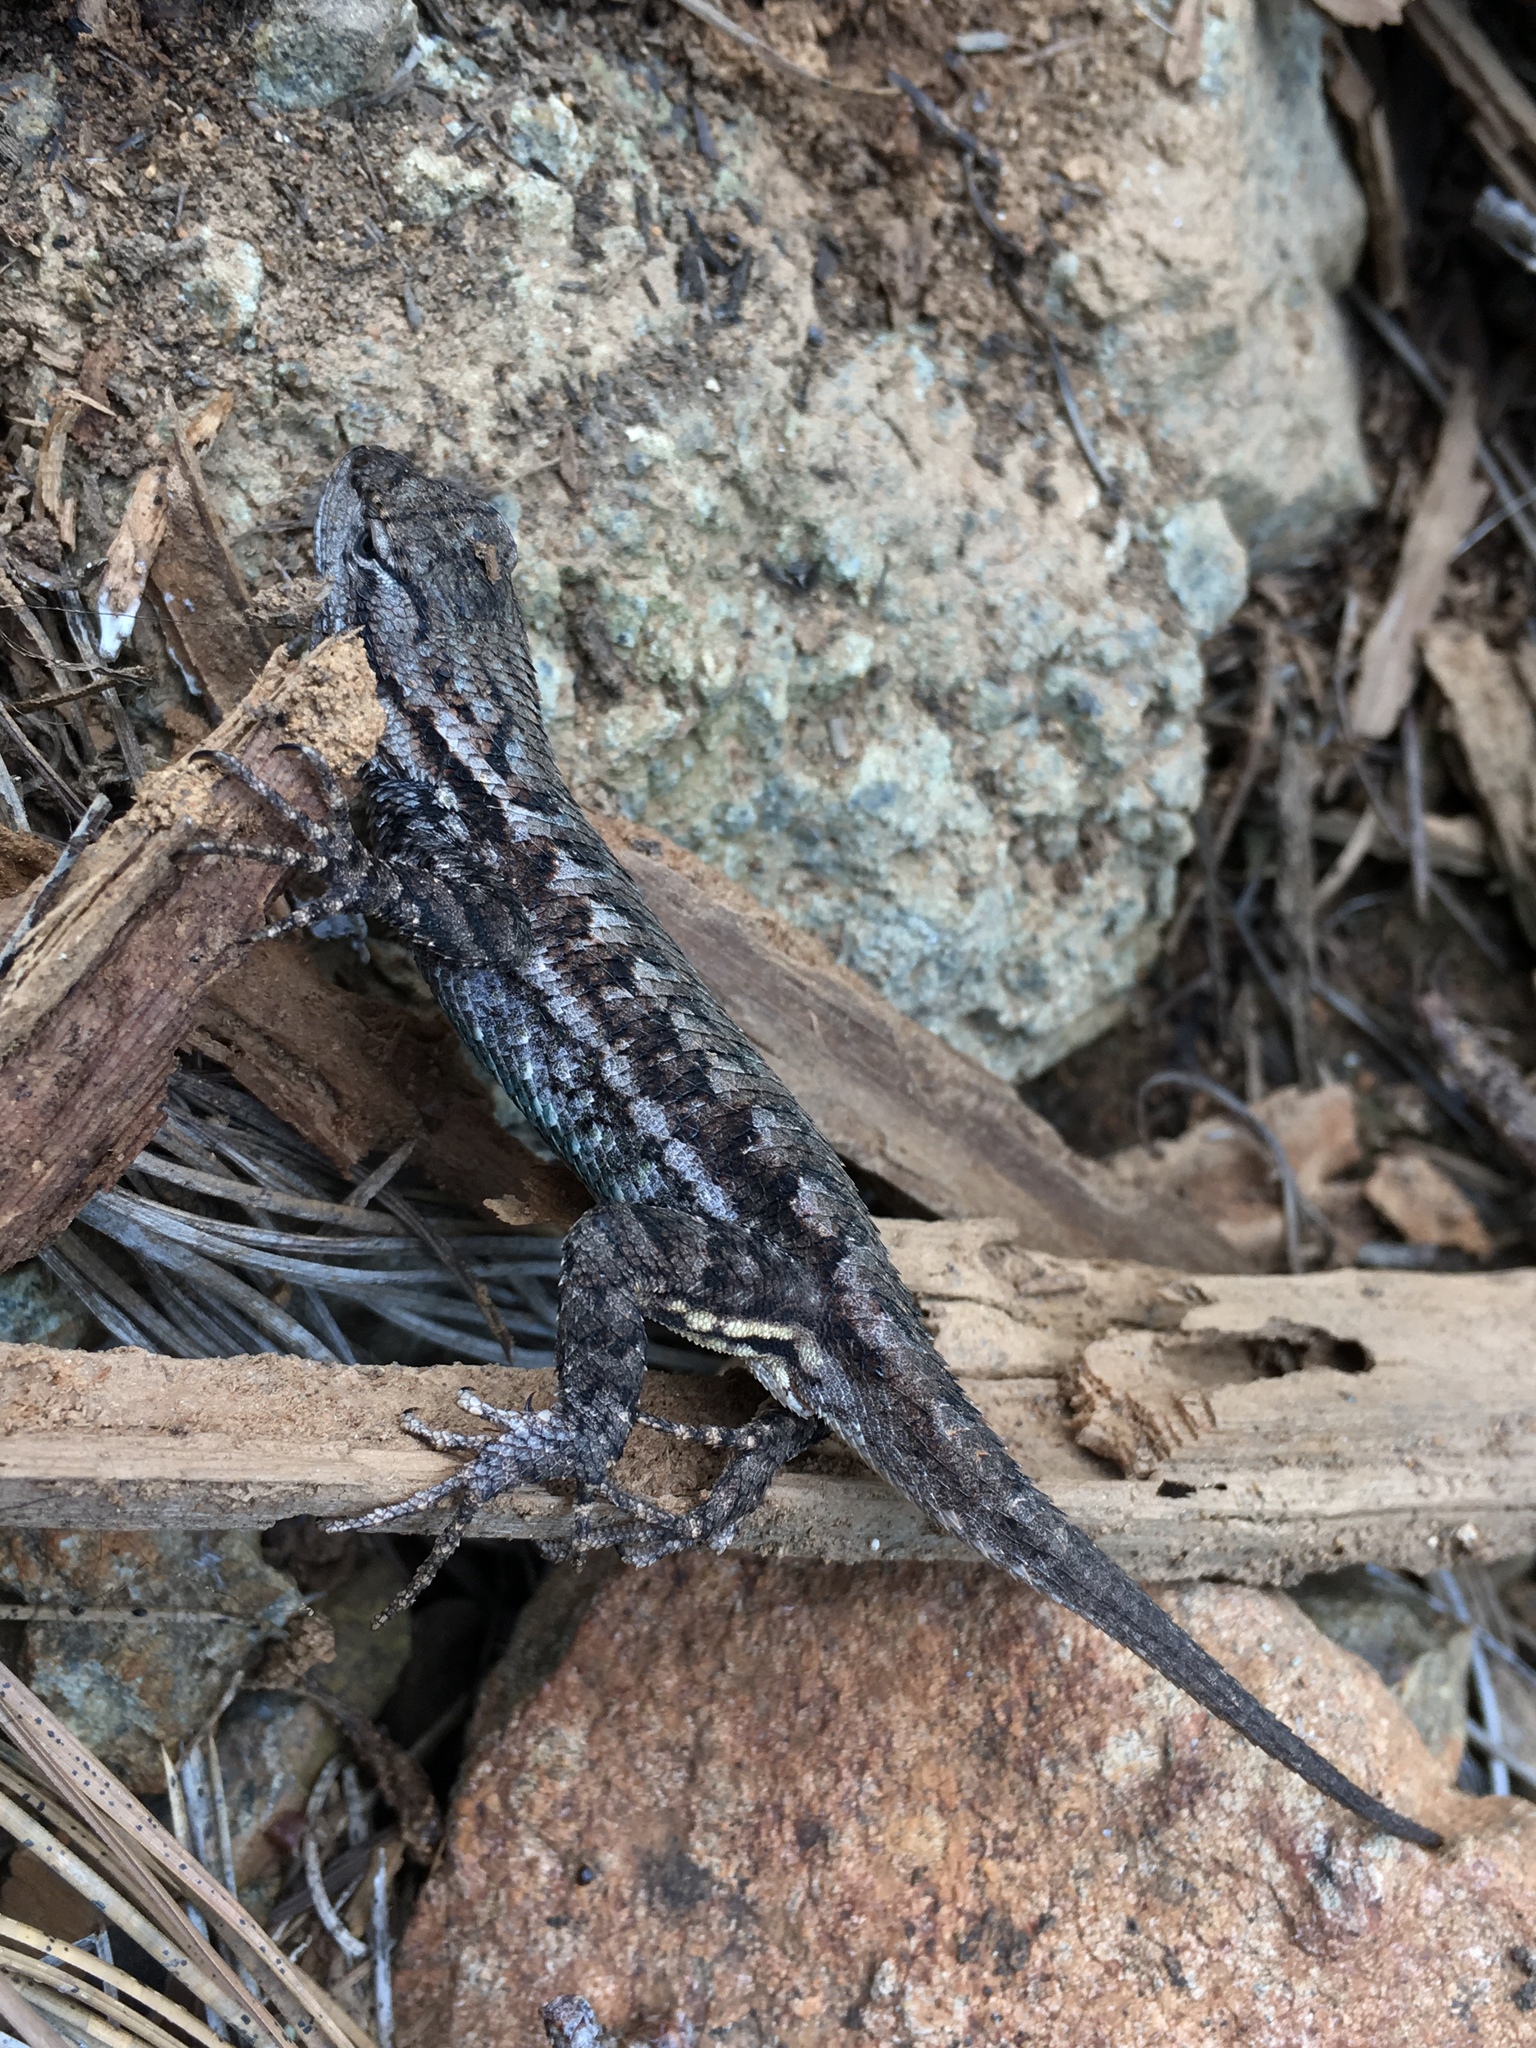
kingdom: Animalia
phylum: Chordata
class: Squamata
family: Phrynosomatidae
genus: Sceloporus
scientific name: Sceloporus occidentalis
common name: Western fence lizard
